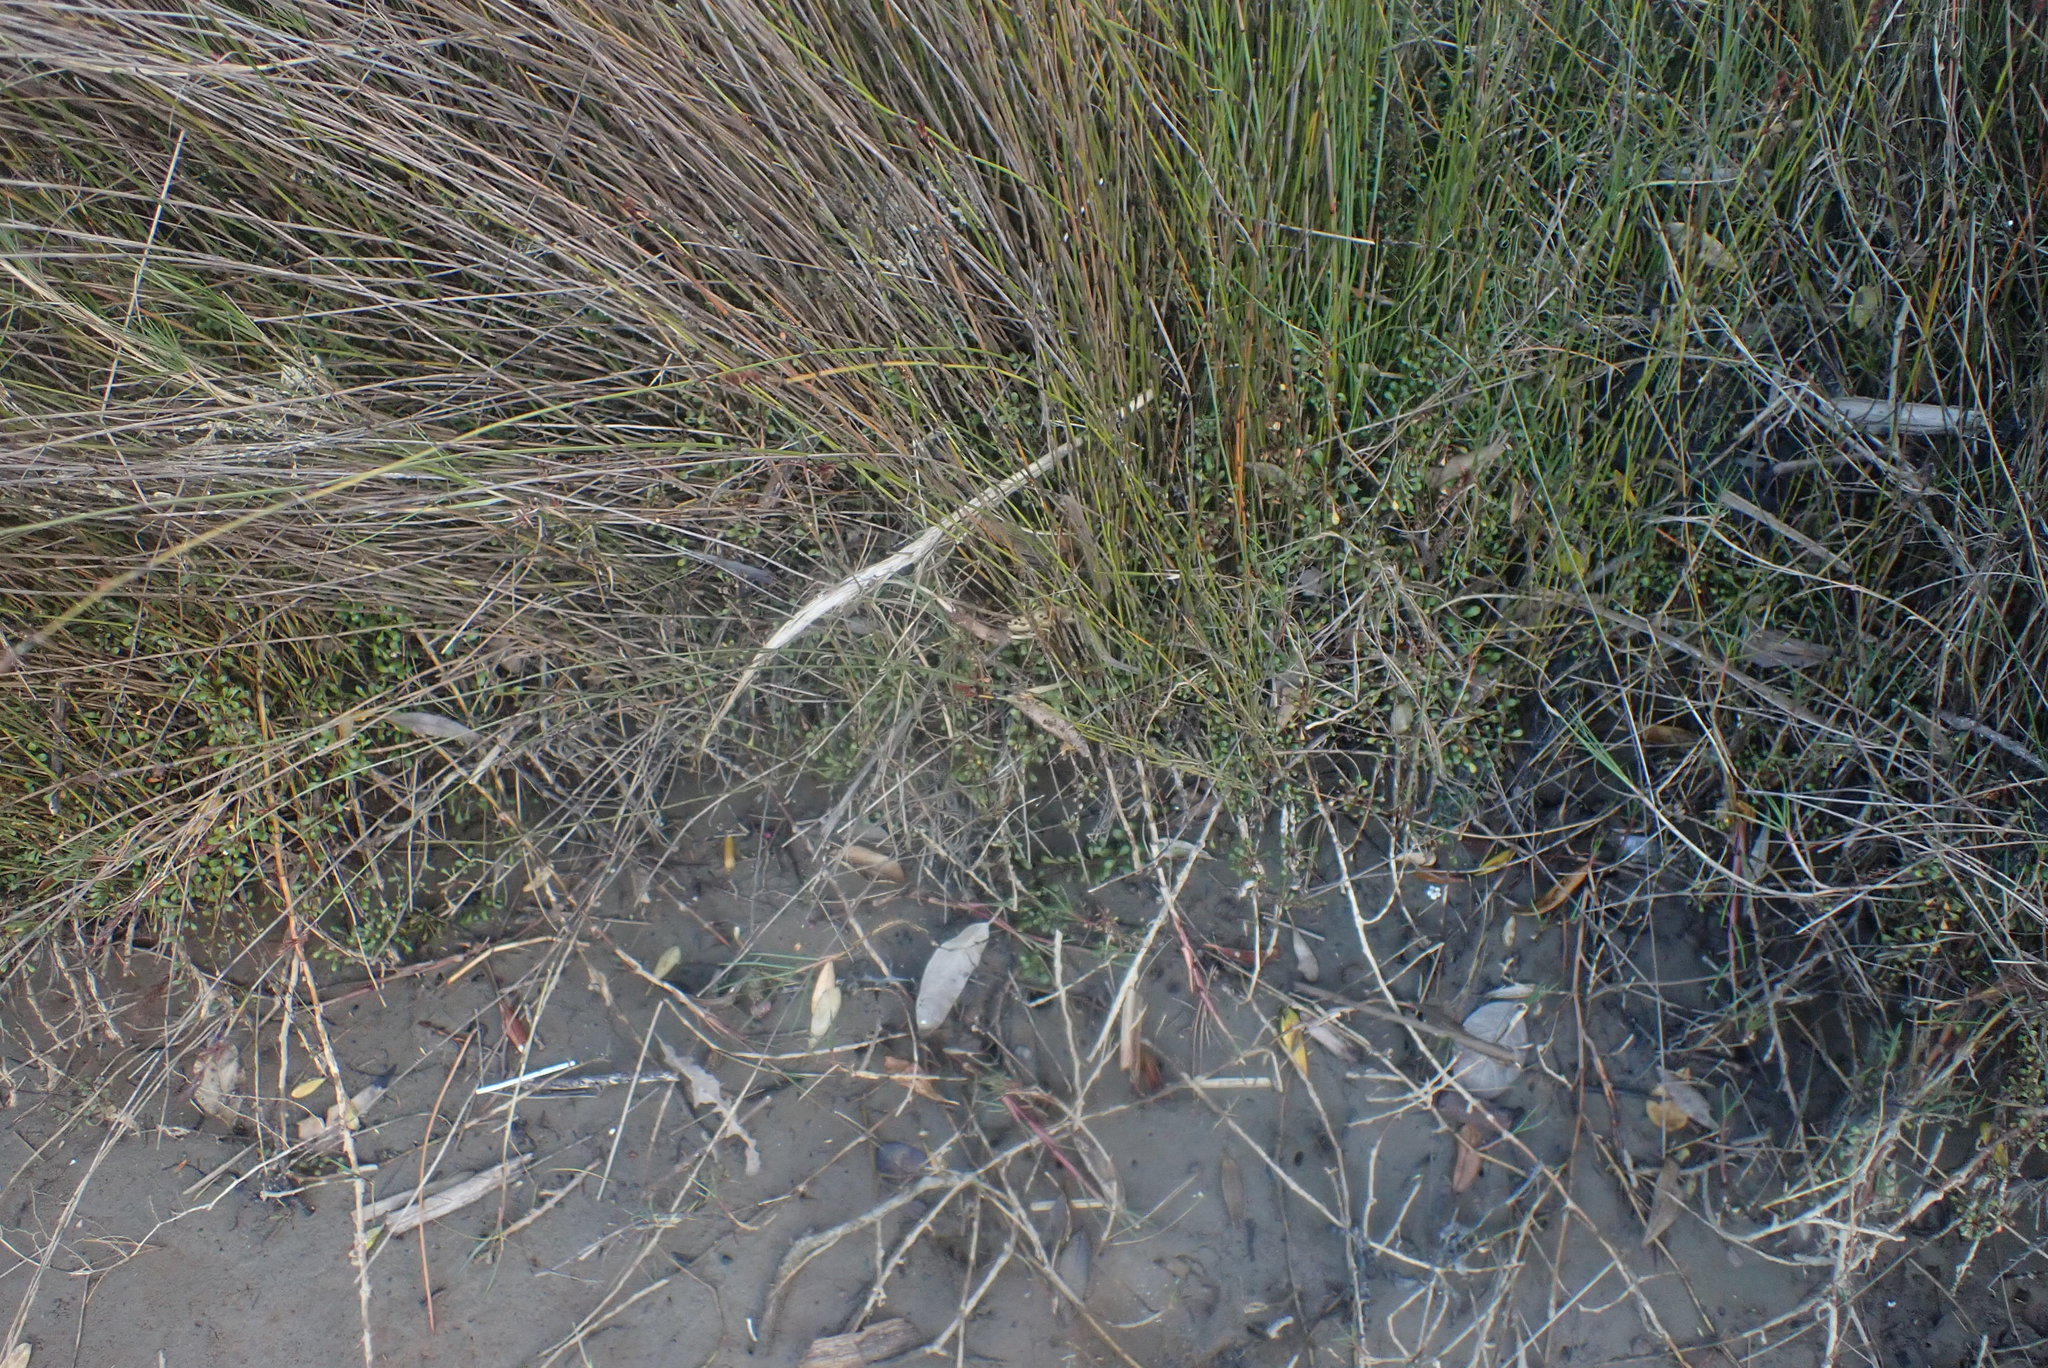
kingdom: Plantae
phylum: Tracheophyta
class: Liliopsida
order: Poales
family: Juncaceae
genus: Juncus
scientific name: Juncus articulatus
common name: Jointed rush
